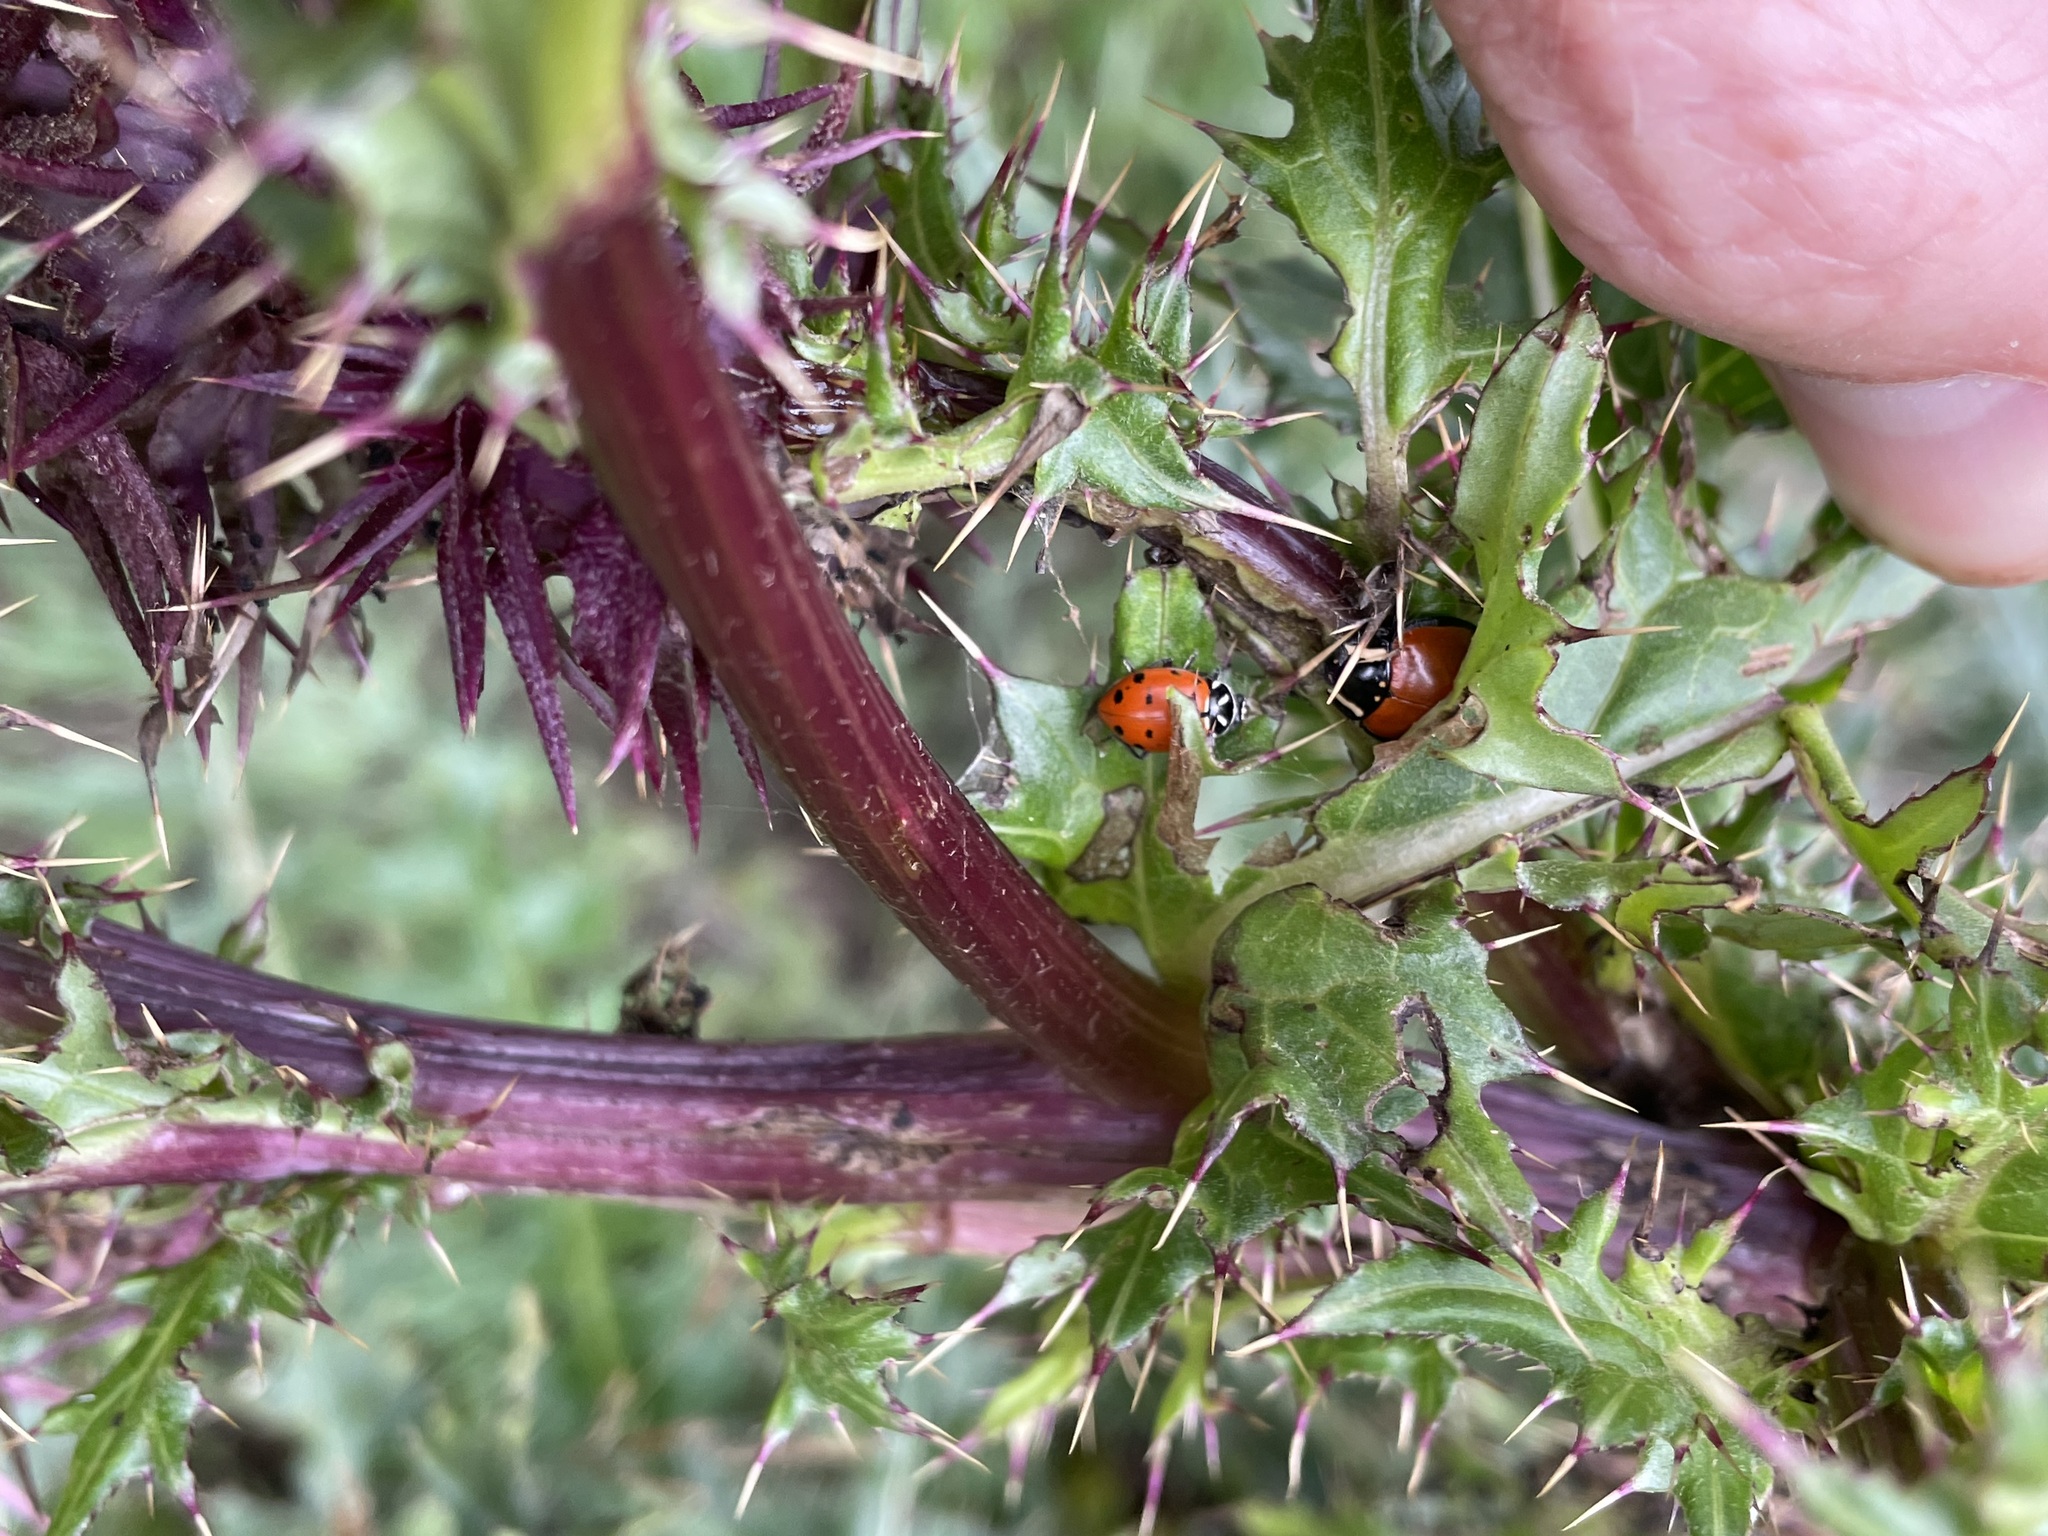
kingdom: Animalia
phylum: Arthropoda
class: Insecta
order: Coleoptera
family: Coccinellidae
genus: Anatis
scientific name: Anatis lecontei
